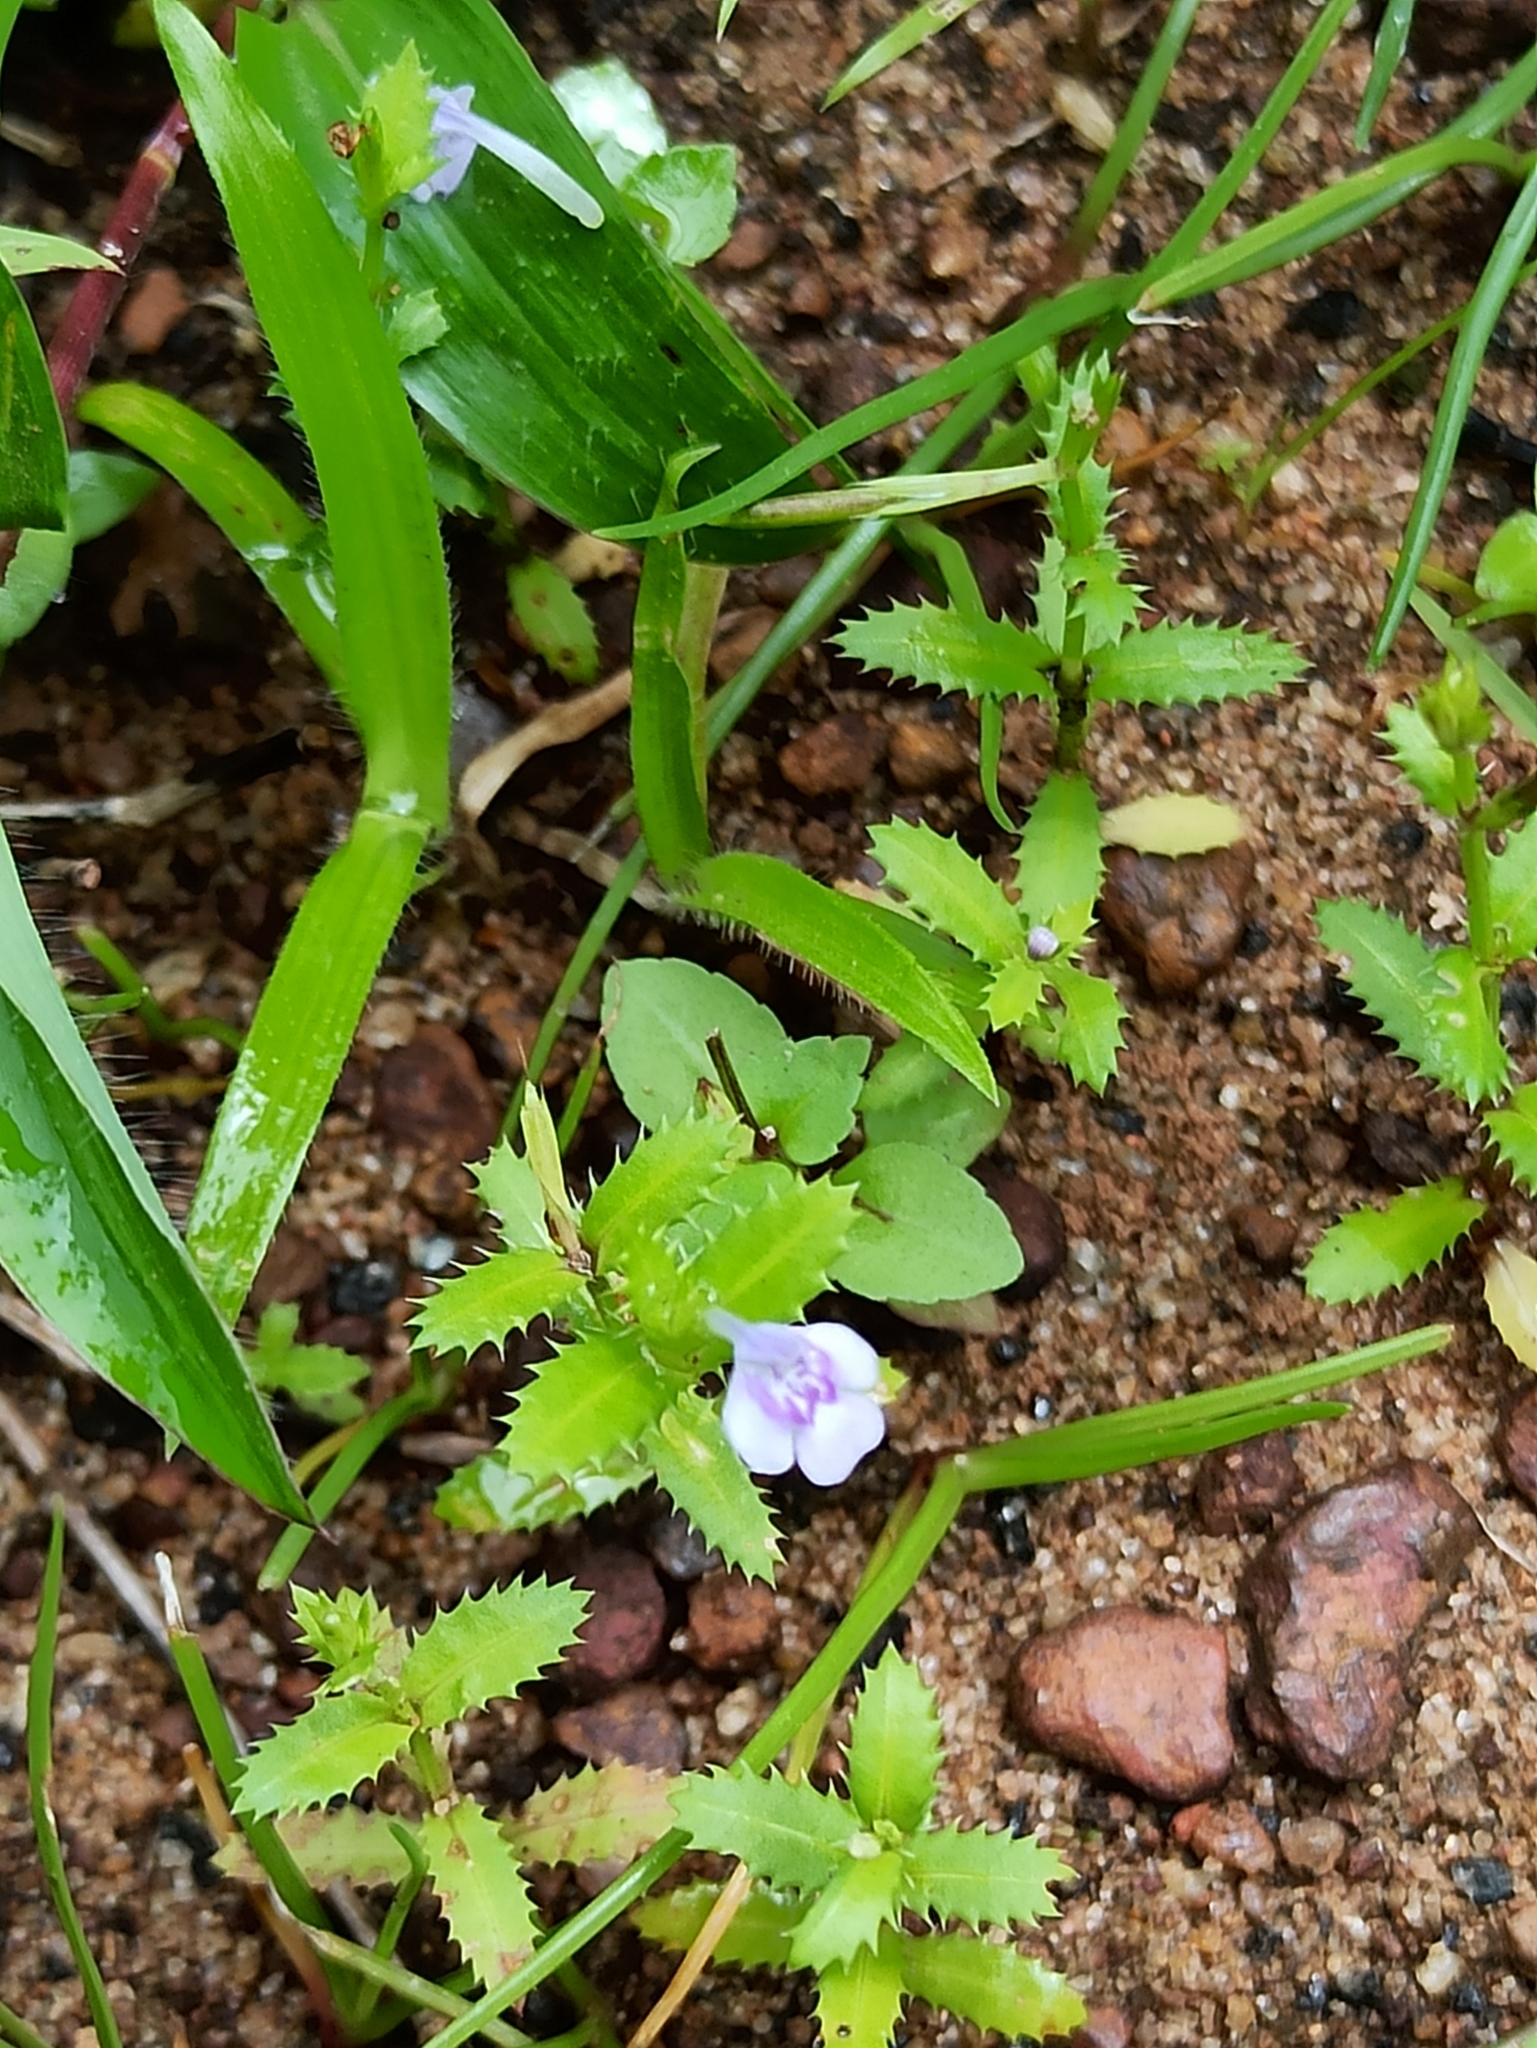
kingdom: Plantae
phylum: Tracheophyta
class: Magnoliopsida
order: Lamiales
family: Linderniaceae
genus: Bonnaya
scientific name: Bonnaya ciliata
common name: Hairy slitwort
